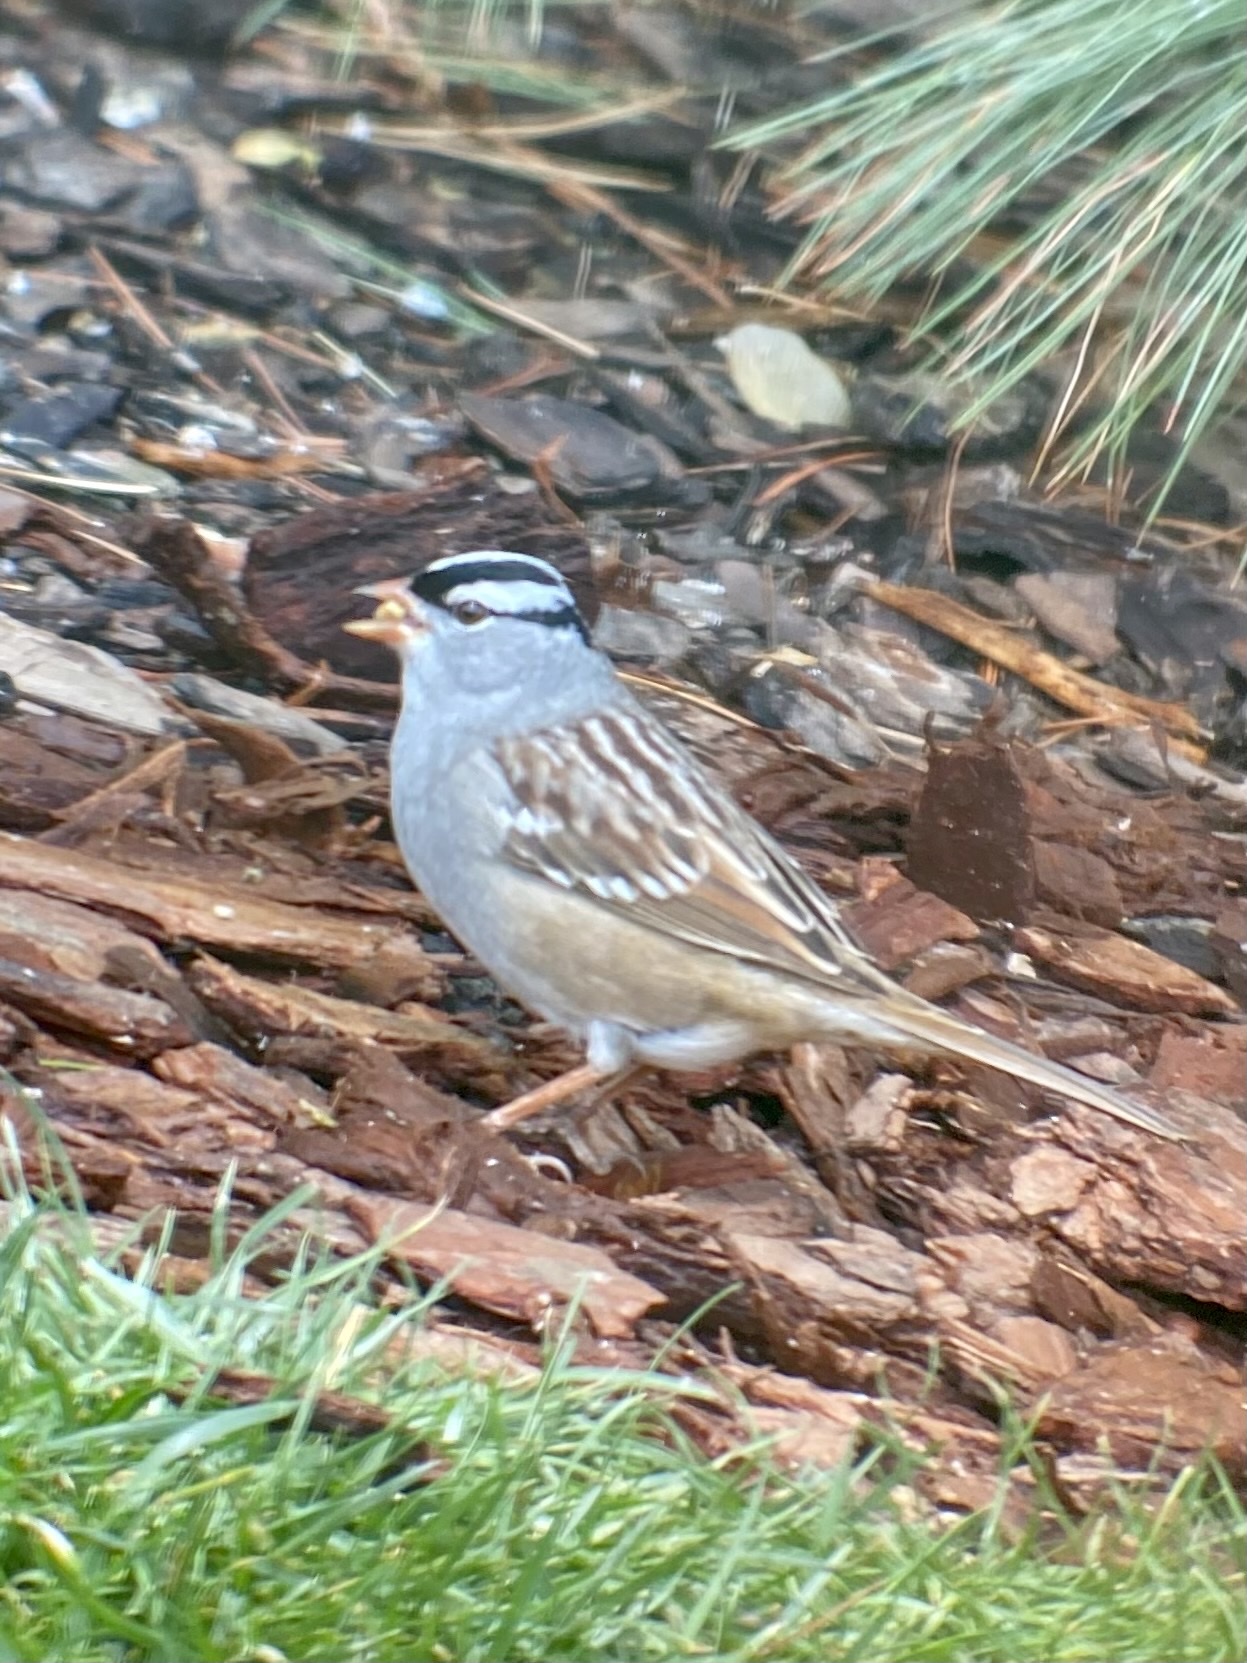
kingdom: Animalia
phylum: Chordata
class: Aves
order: Passeriformes
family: Passerellidae
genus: Zonotrichia
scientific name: Zonotrichia leucophrys
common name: White-crowned sparrow
